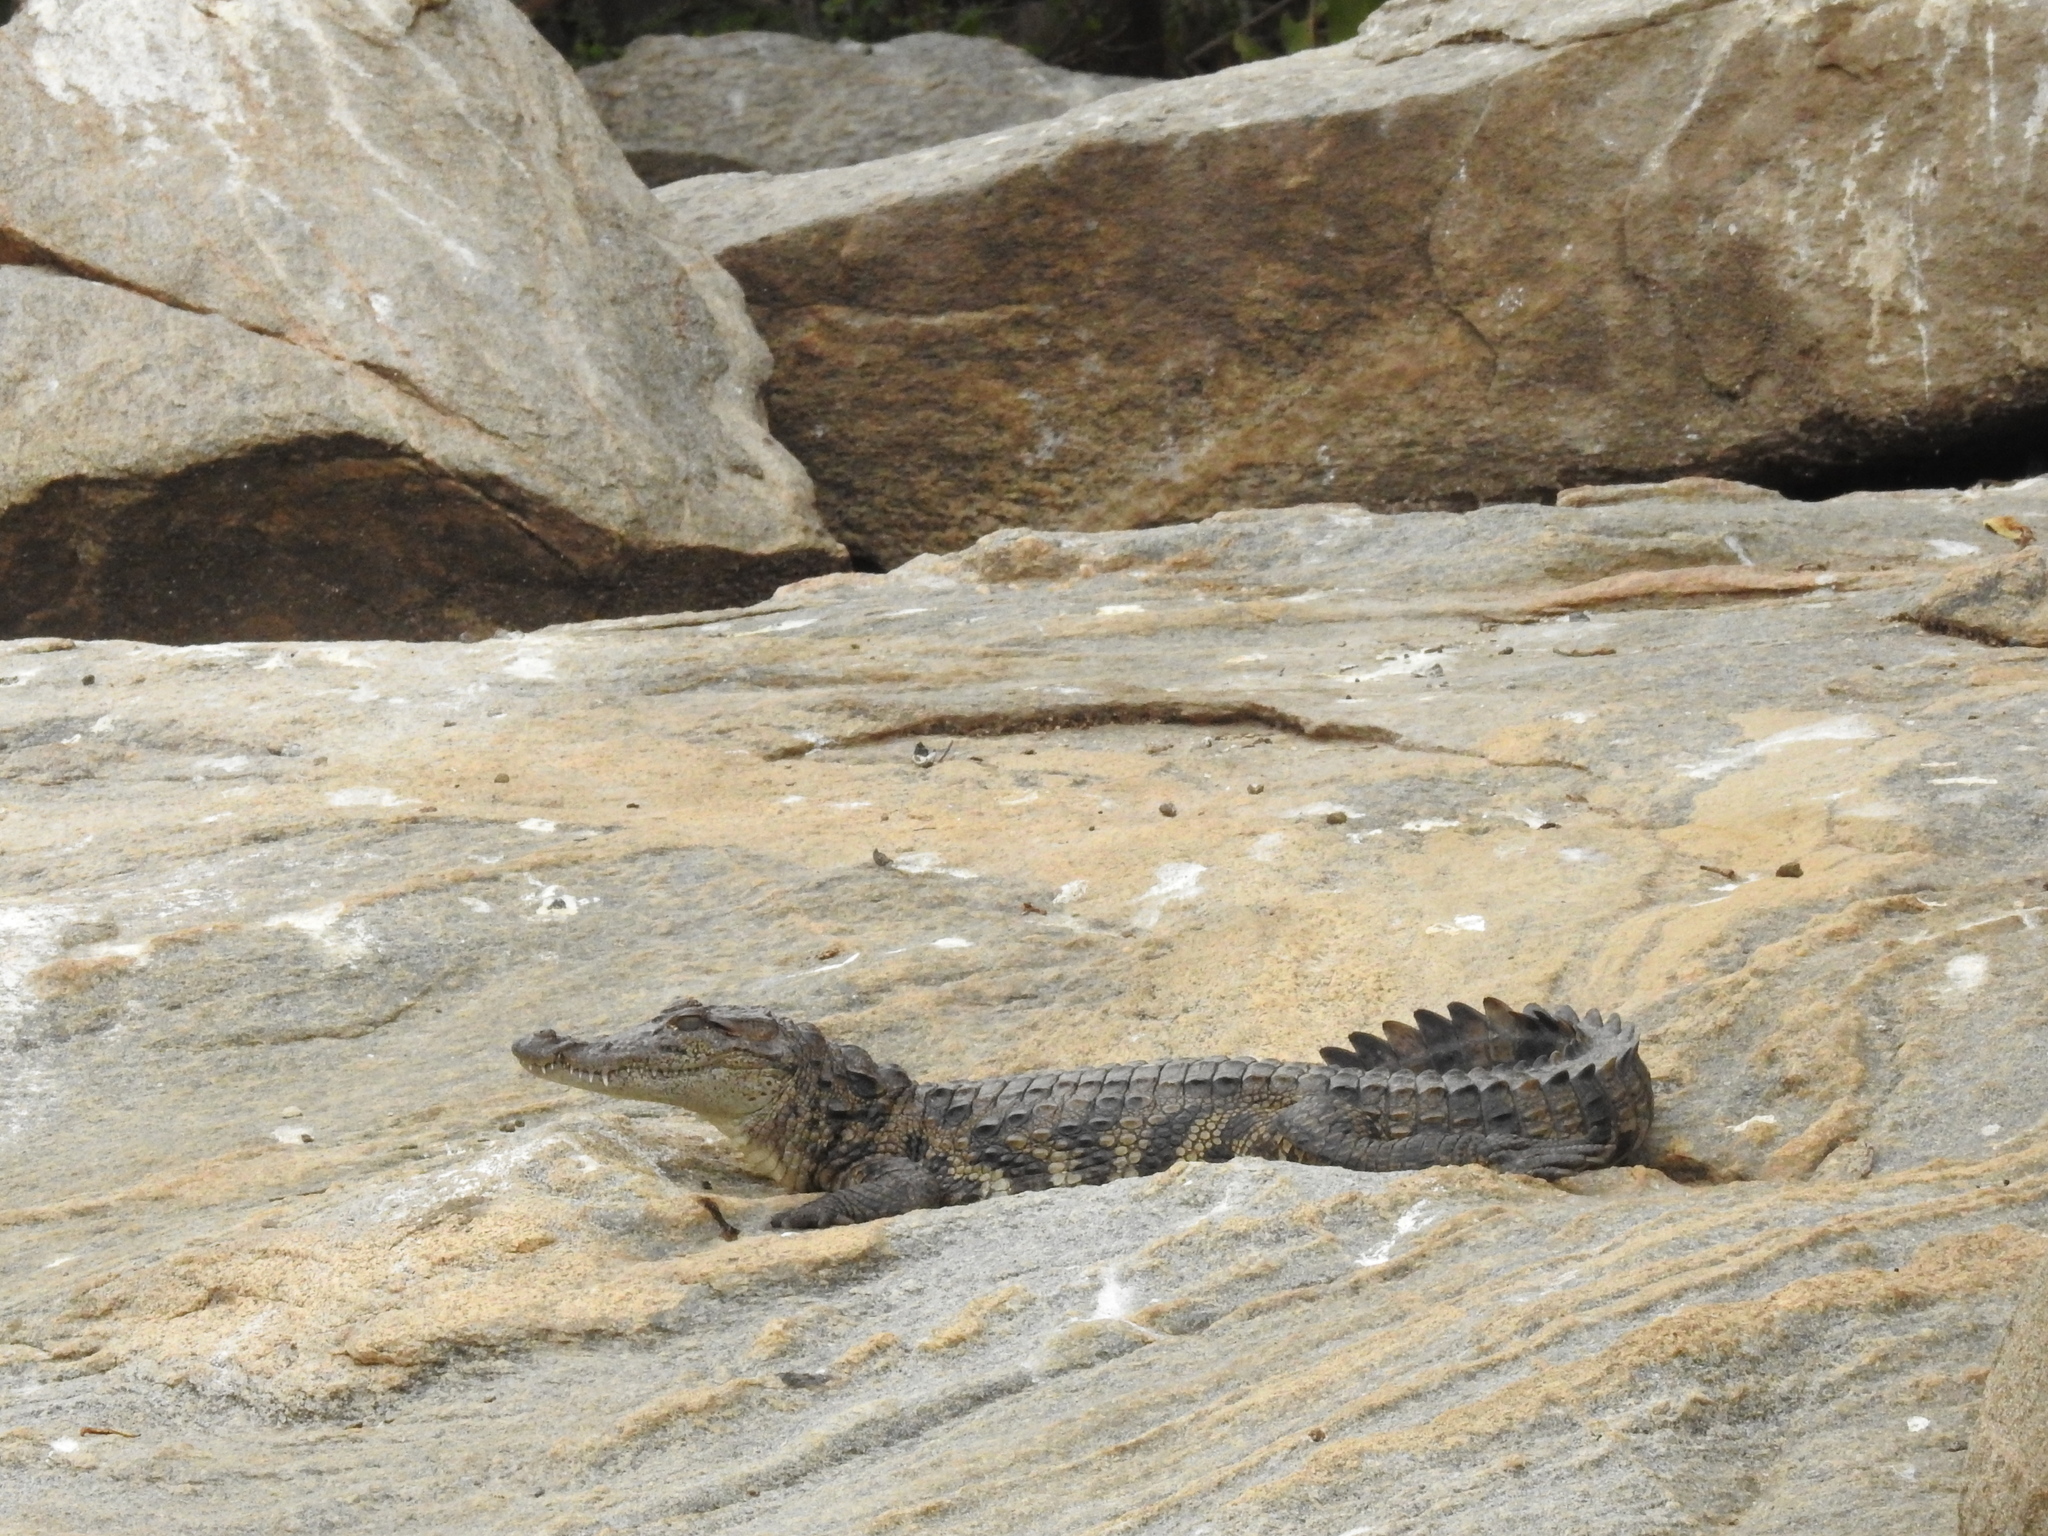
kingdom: Animalia
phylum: Chordata
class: Crocodylia
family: Crocodylidae
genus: Crocodylus
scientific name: Crocodylus palustris
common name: Mugger crocodile
